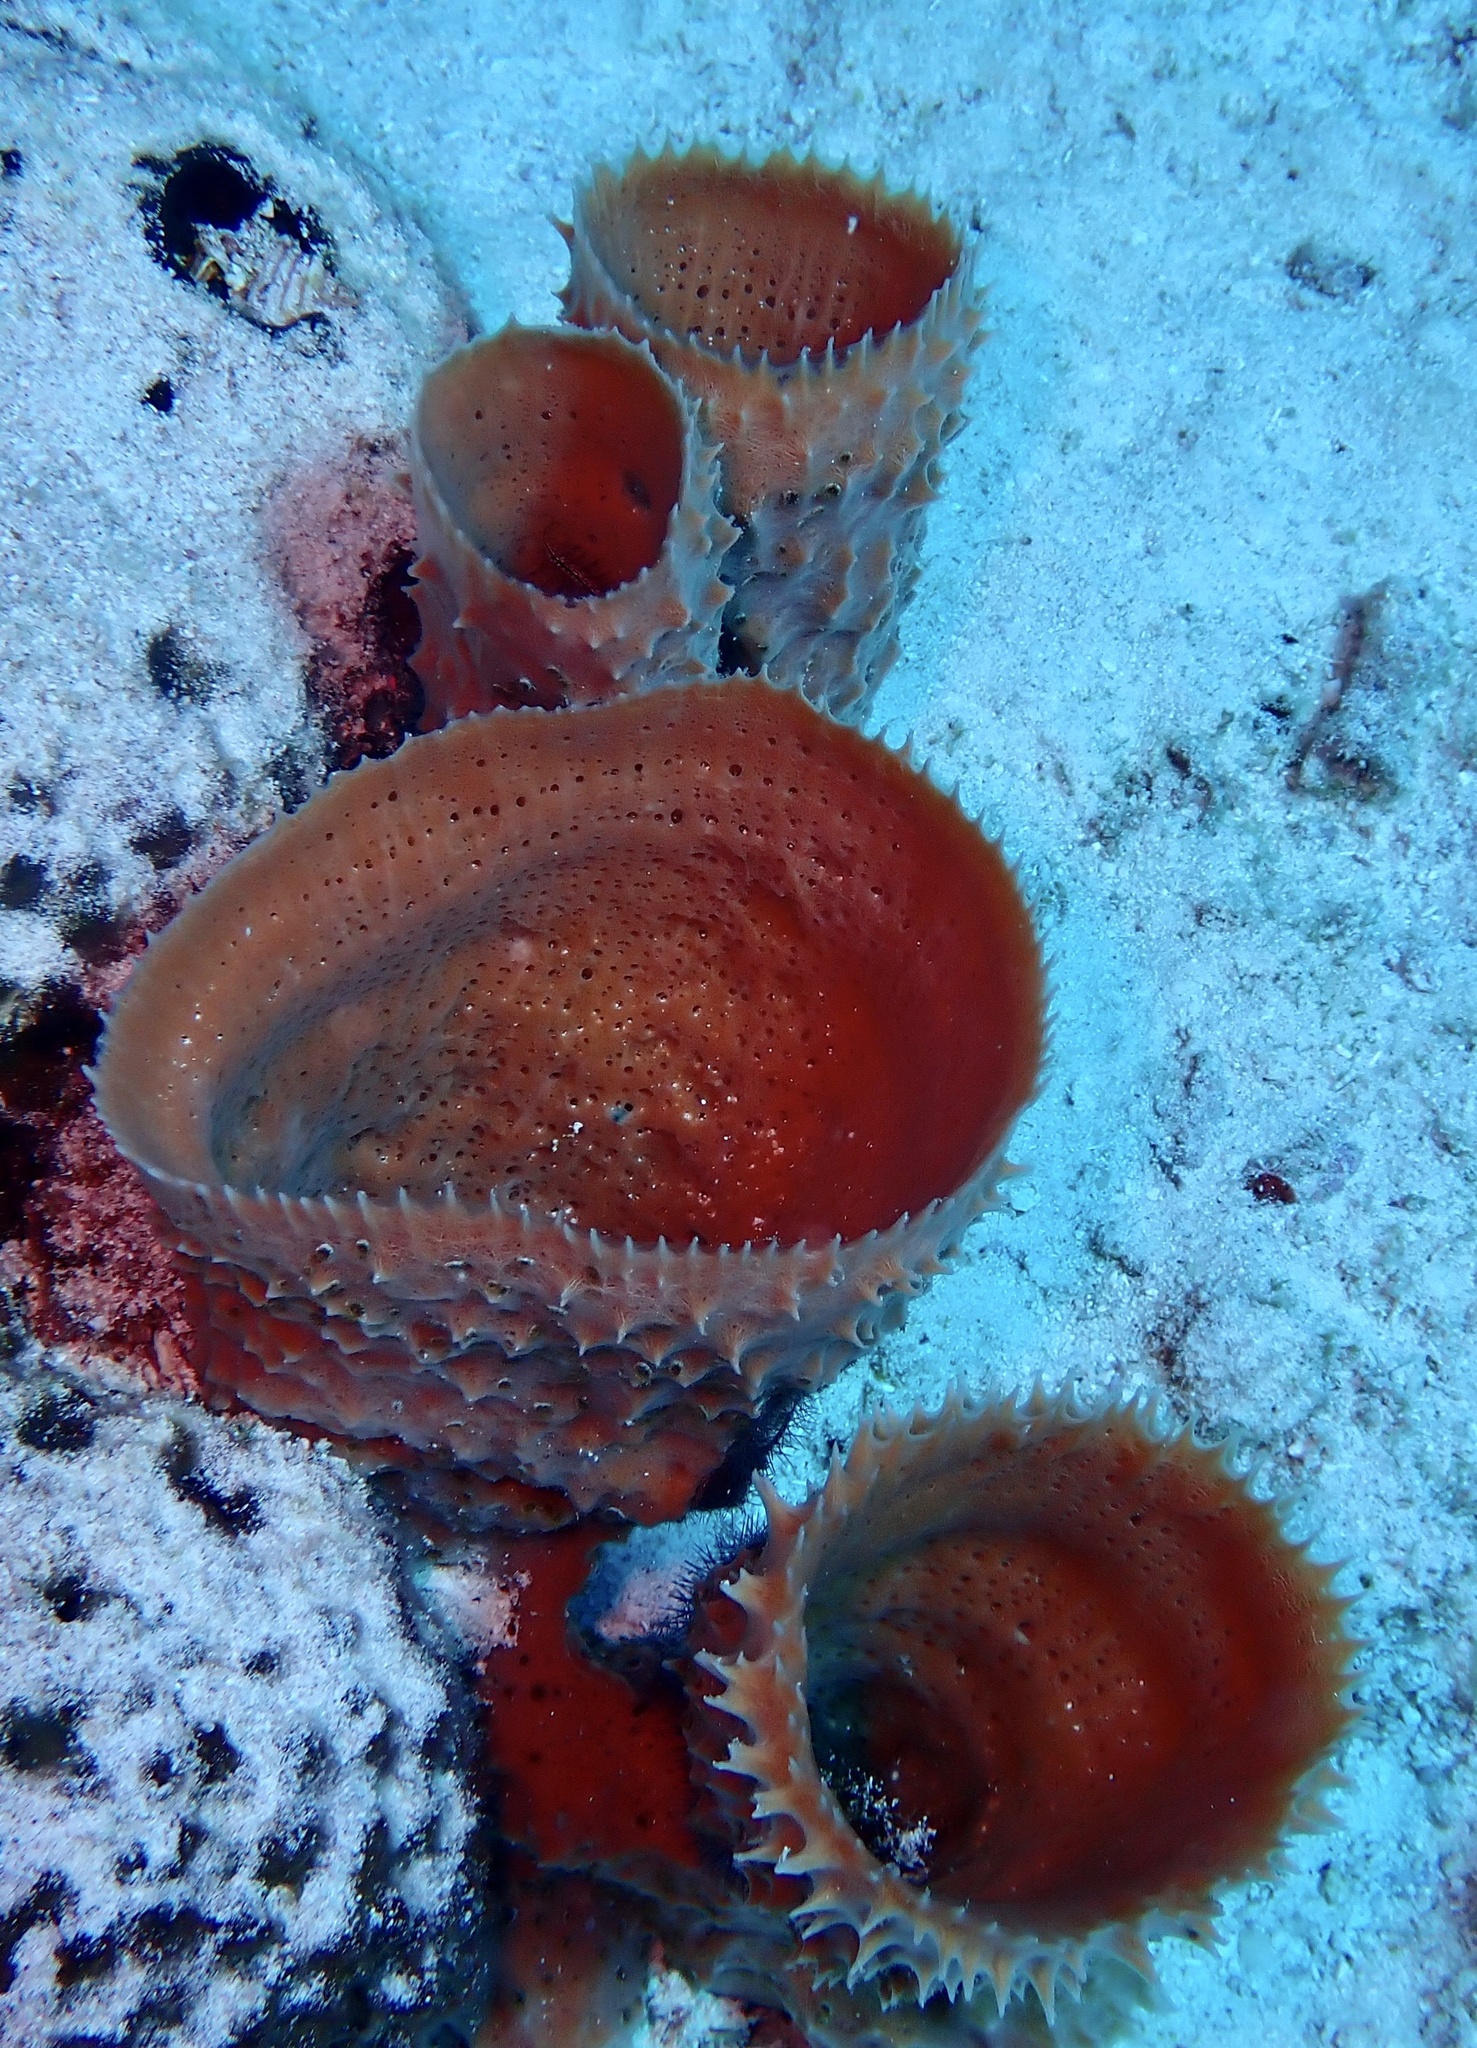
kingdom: Animalia
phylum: Porifera
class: Demospongiae
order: Haplosclerida
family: Callyspongiidae
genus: Callyspongia
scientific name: Callyspongia aculeata
